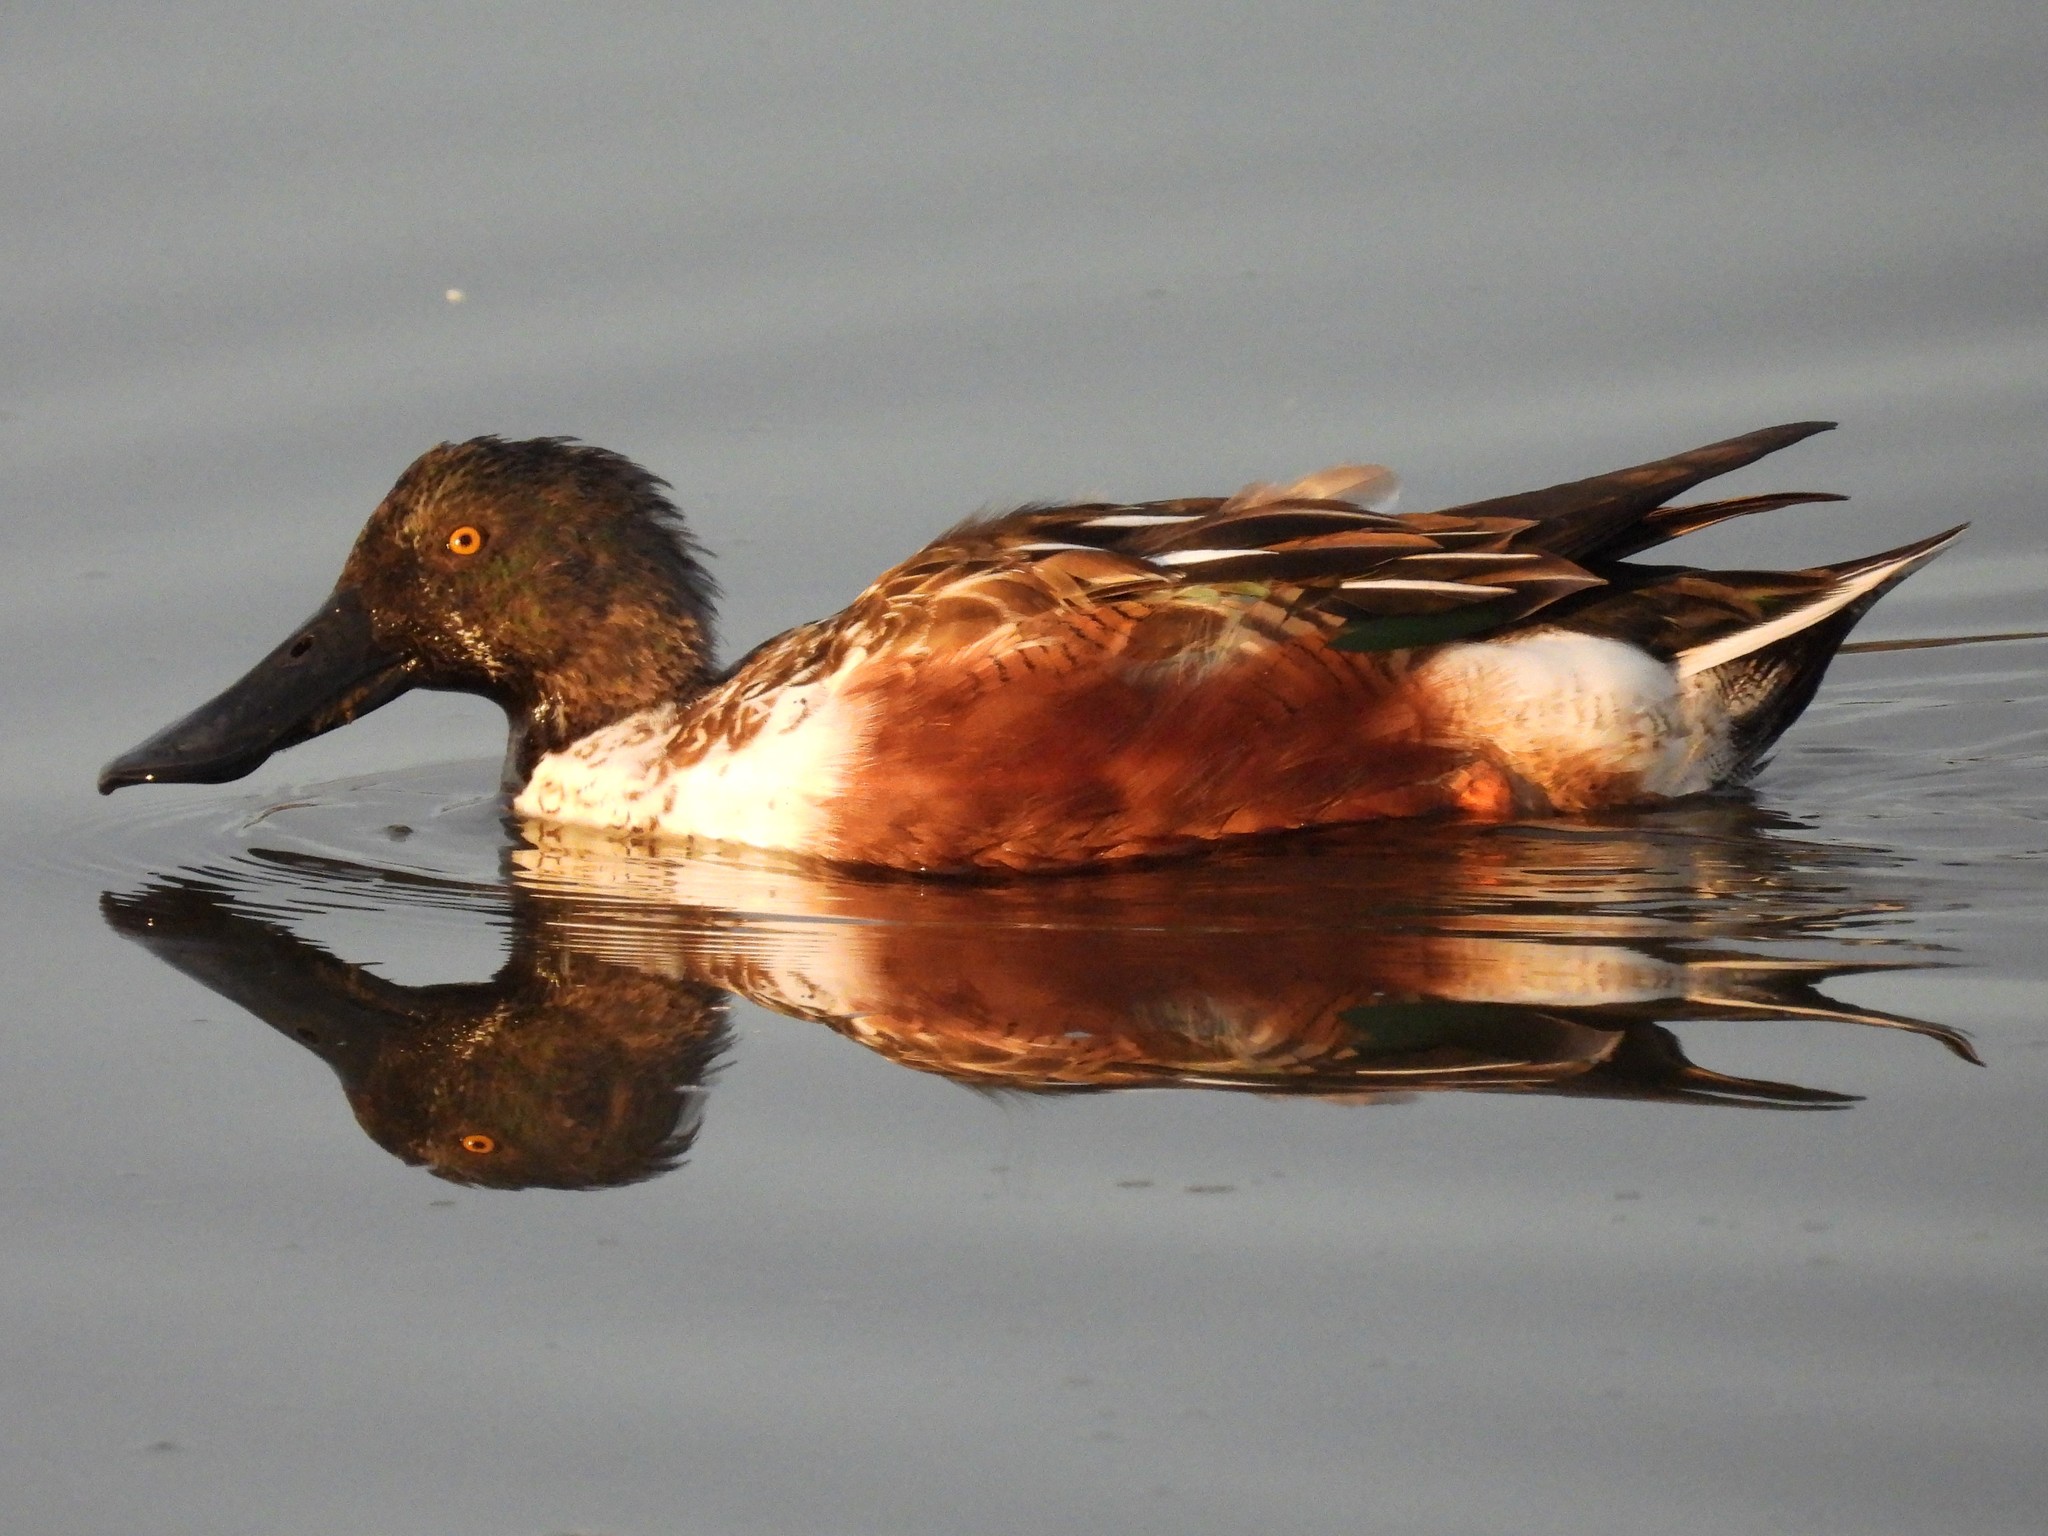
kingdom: Animalia
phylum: Chordata
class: Aves
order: Anseriformes
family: Anatidae
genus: Spatula
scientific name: Spatula clypeata
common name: Northern shoveler
